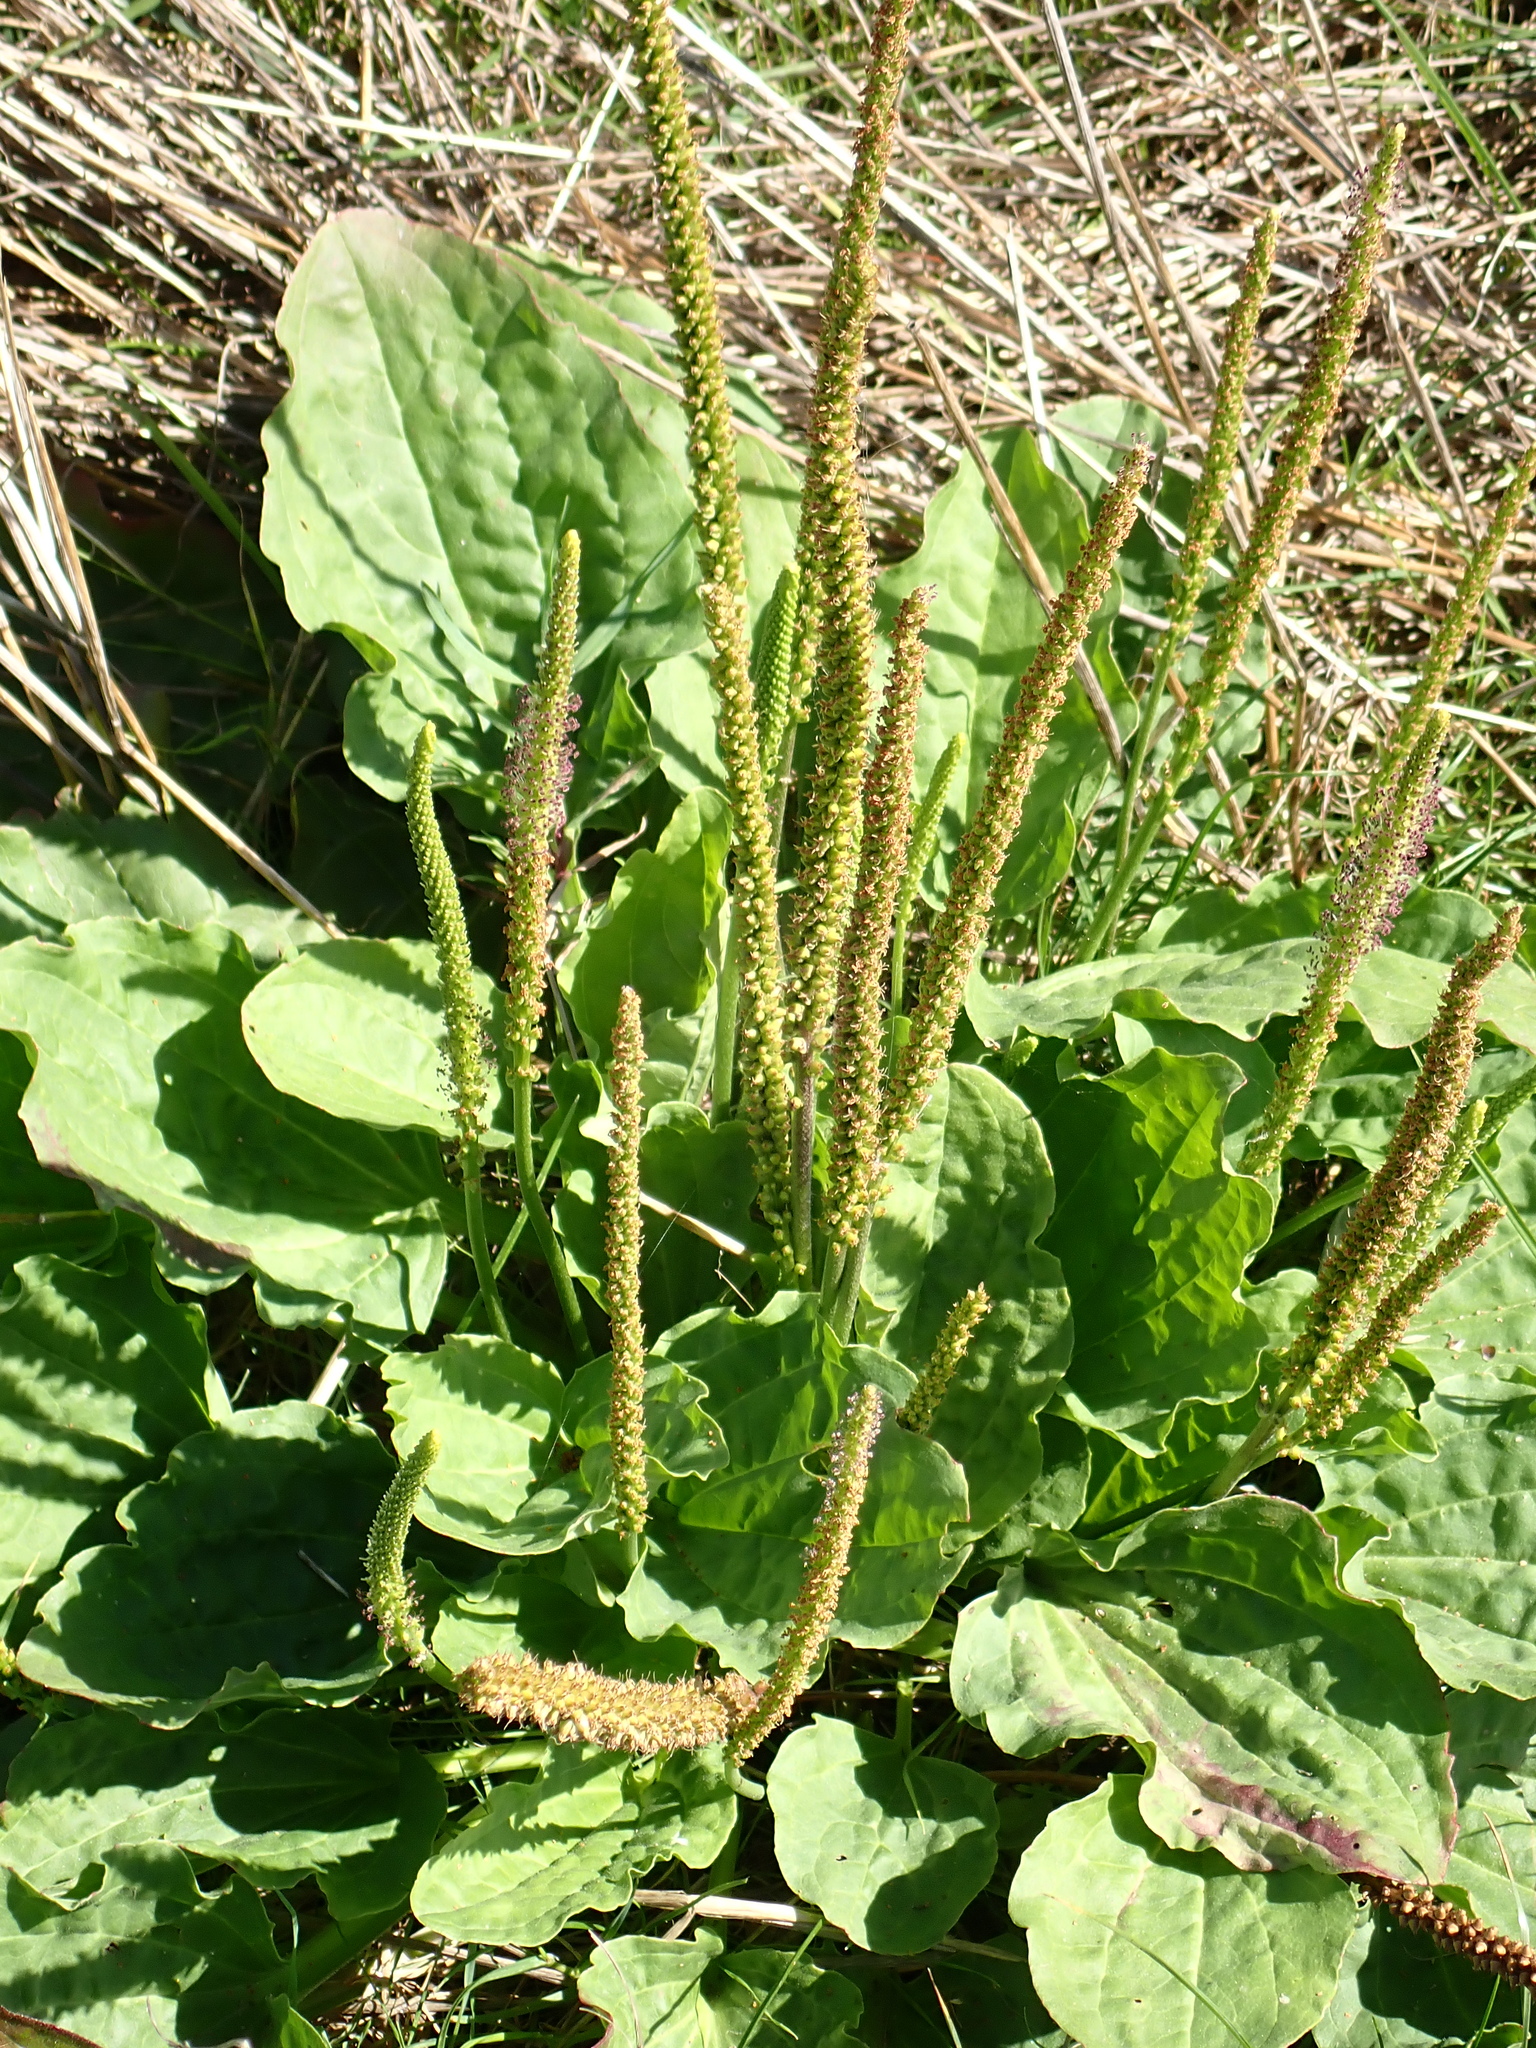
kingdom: Plantae
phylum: Tracheophyta
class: Magnoliopsida
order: Lamiales
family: Plantaginaceae
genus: Plantago
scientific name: Plantago major
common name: Common plantain
